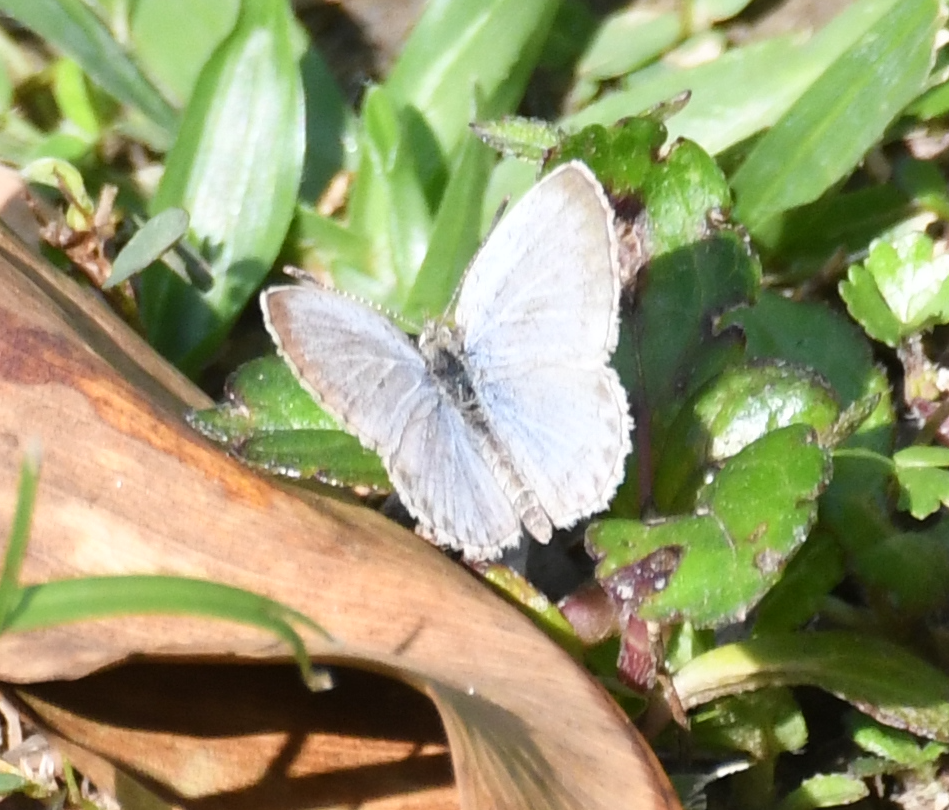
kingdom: Animalia
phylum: Arthropoda
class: Insecta
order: Lepidoptera
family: Lycaenidae
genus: Pseudozizeeria
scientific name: Pseudozizeeria maha
